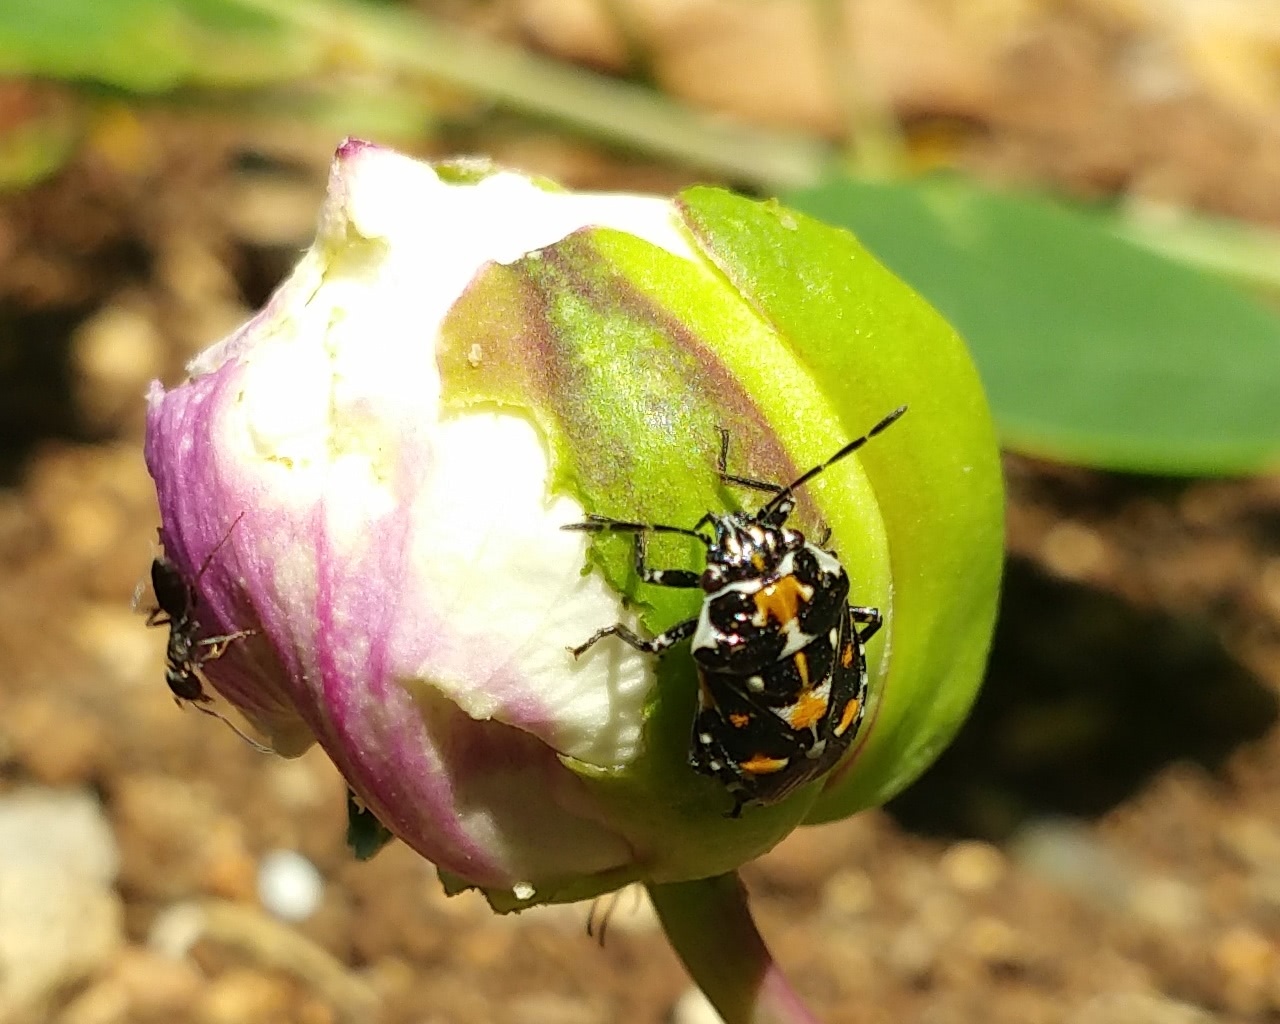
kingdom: Animalia
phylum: Arthropoda
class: Insecta
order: Hemiptera
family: Pentatomidae
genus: Stenozygum
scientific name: Stenozygum coloratum
